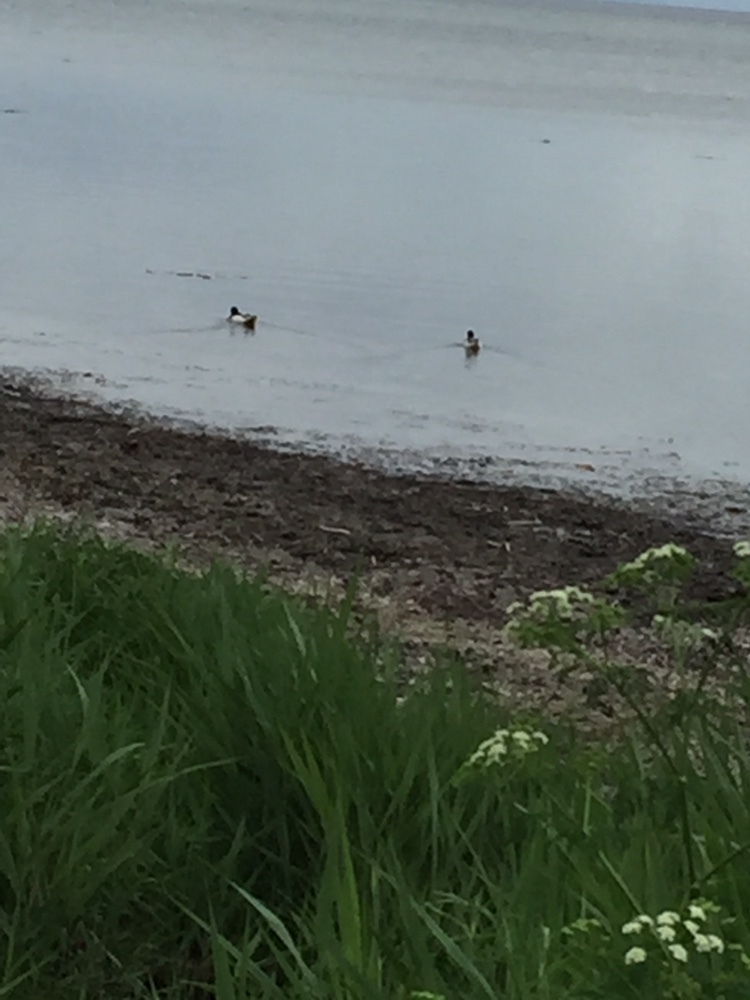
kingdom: Animalia
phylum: Chordata
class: Aves
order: Anseriformes
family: Anatidae
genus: Tadorna
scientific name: Tadorna tadorna
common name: Common shelduck
